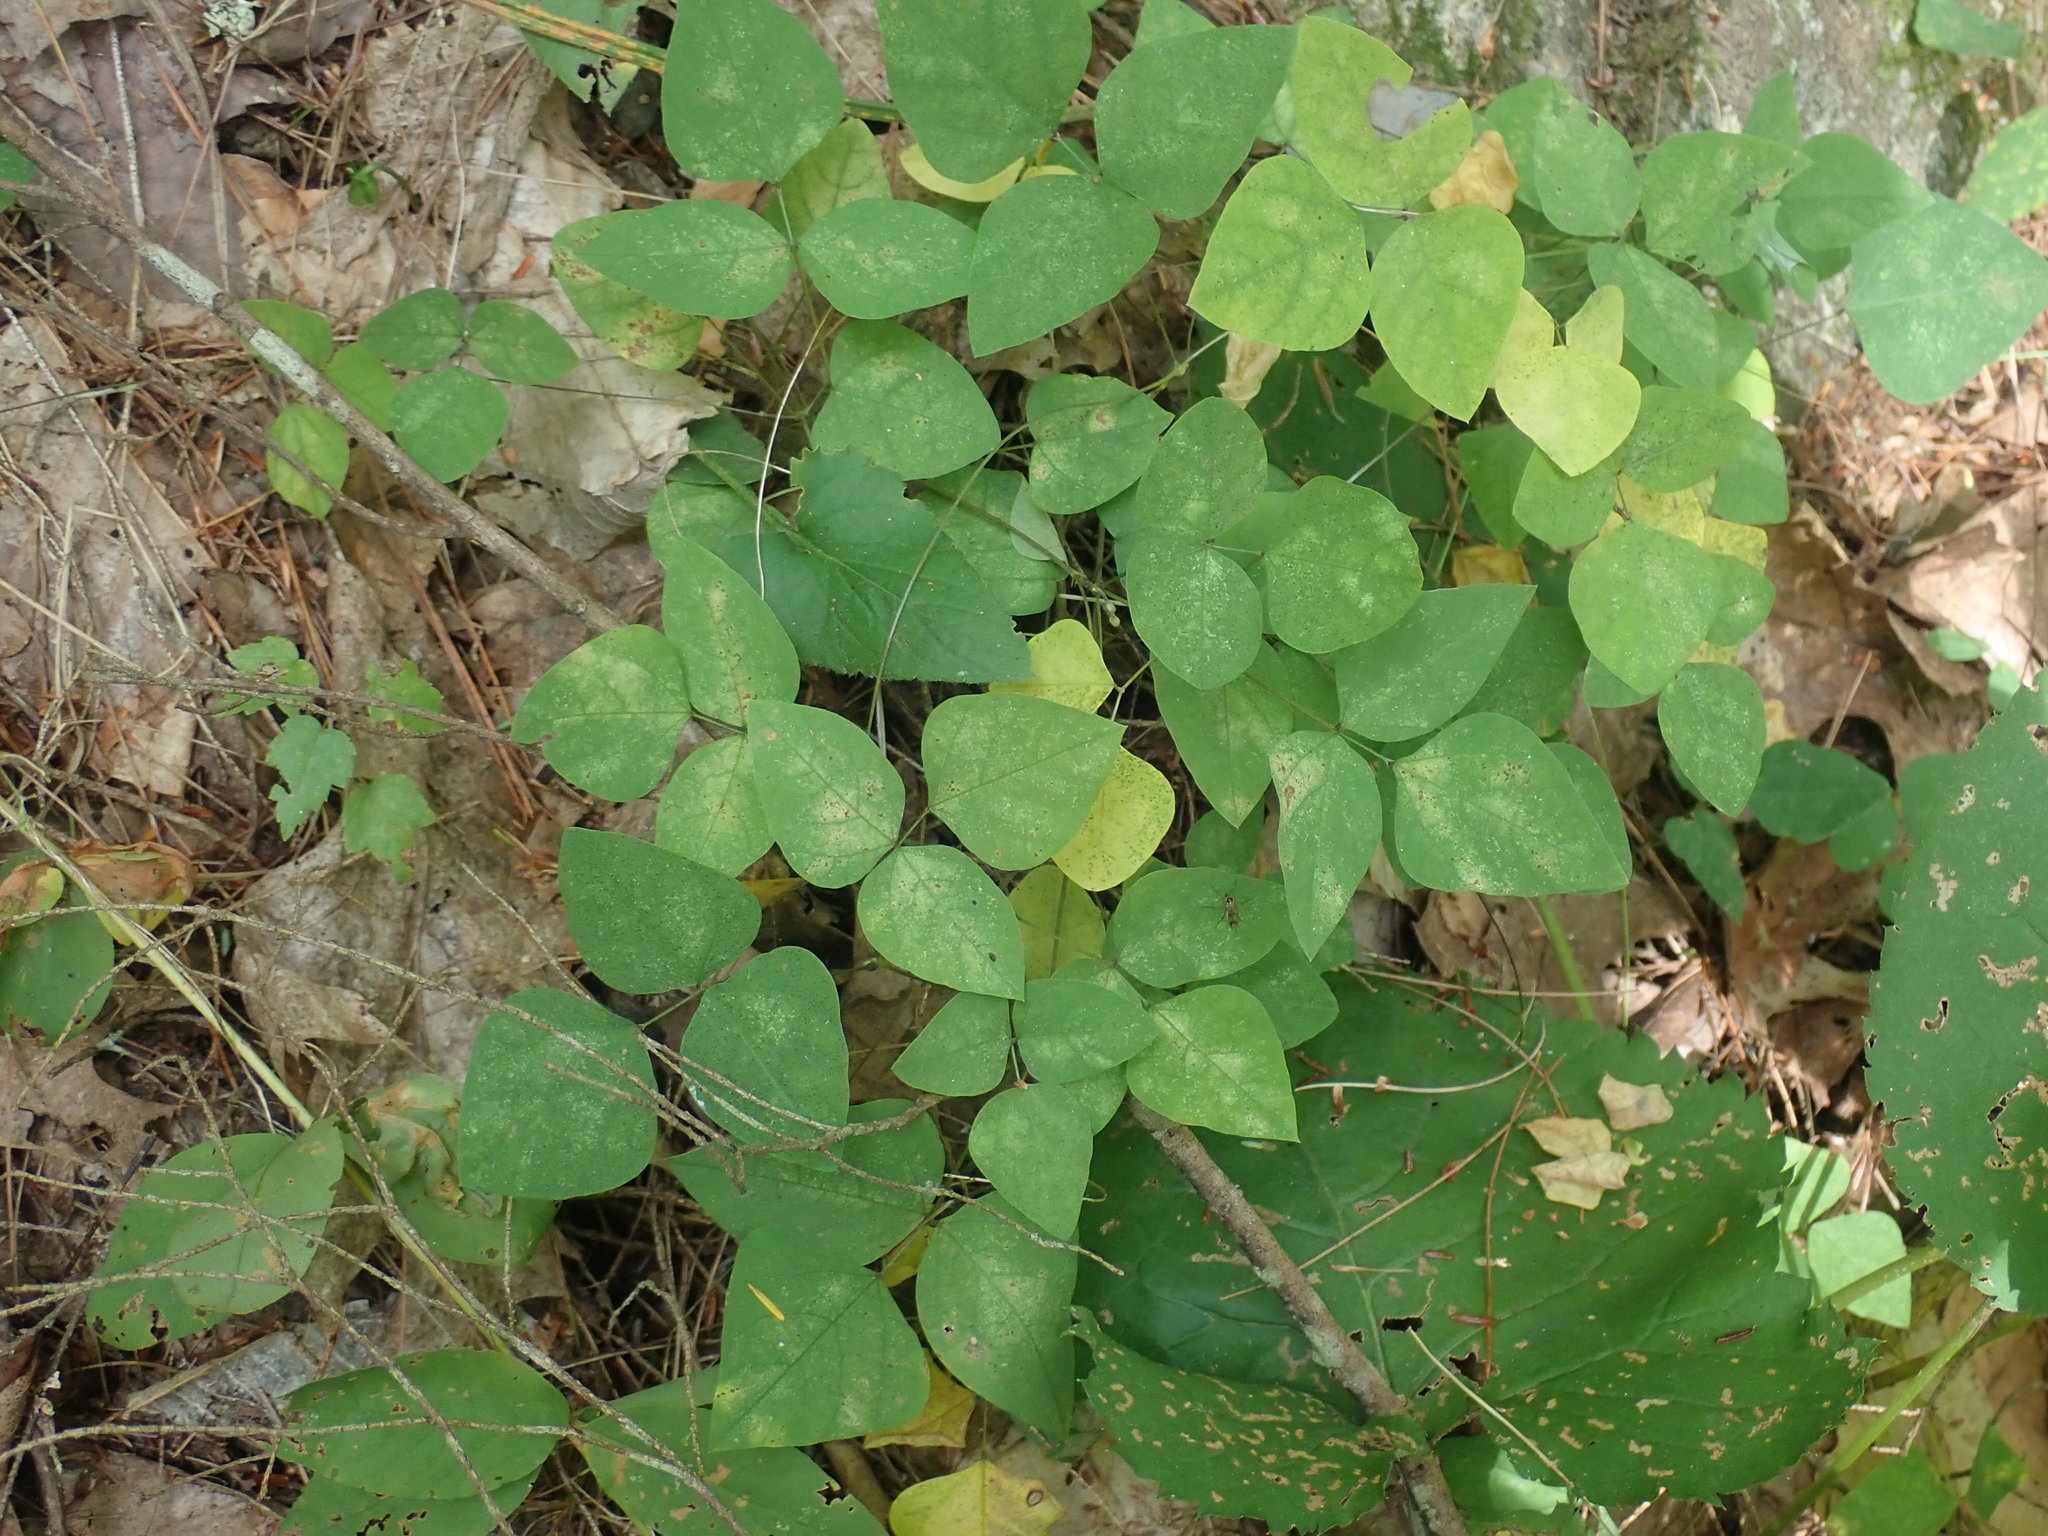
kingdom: Plantae
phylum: Tracheophyta
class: Magnoliopsida
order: Fabales
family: Fabaceae
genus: Amphicarpaea
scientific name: Amphicarpaea bracteata
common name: American hog peanut
